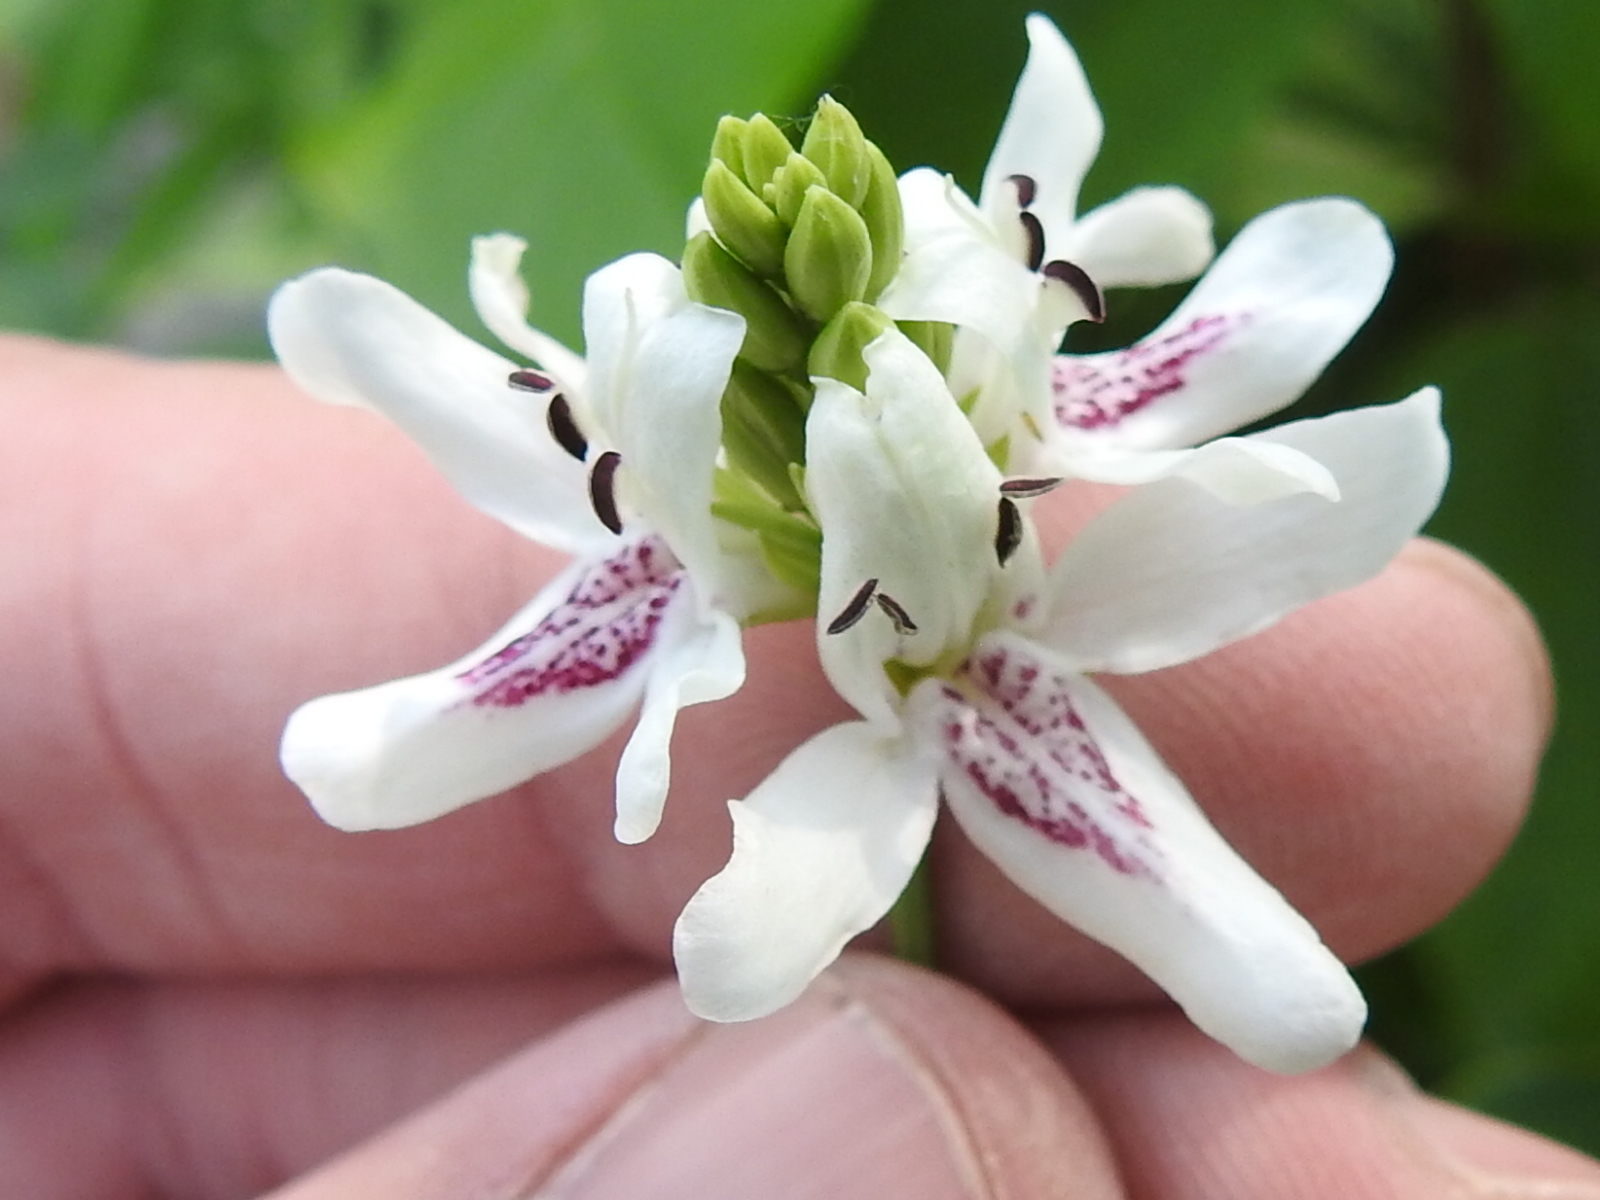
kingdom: Plantae
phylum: Tracheophyta
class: Magnoliopsida
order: Lamiales
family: Acanthaceae
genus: Dianthera
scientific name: Dianthera americana
